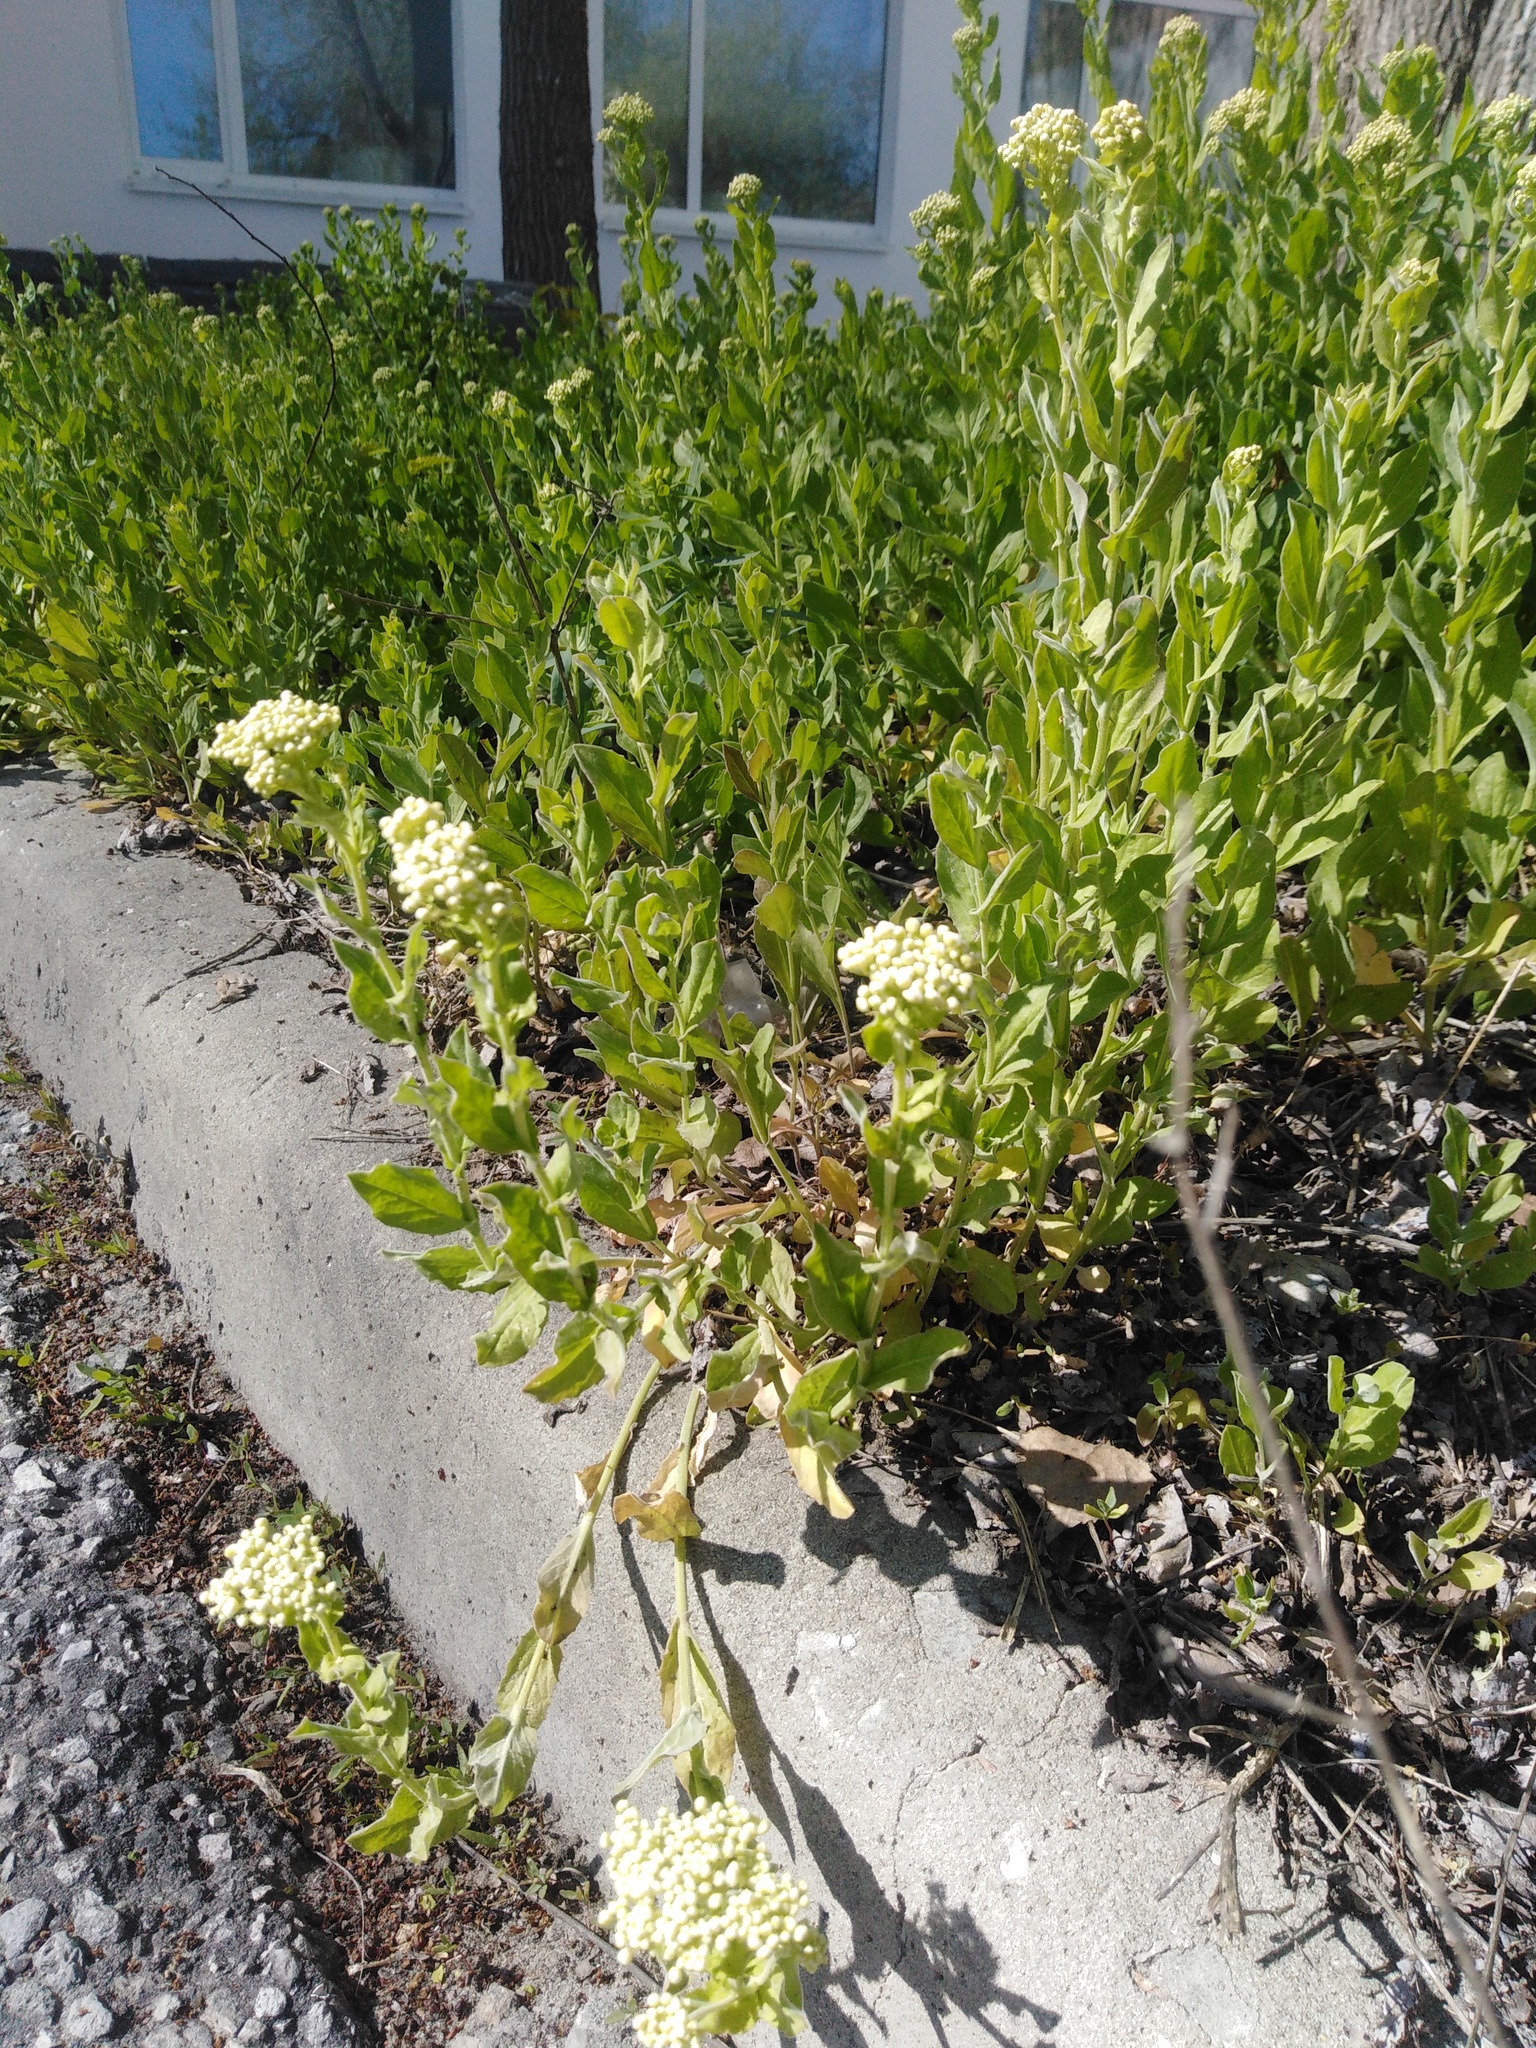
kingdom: Plantae
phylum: Tracheophyta
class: Magnoliopsida
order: Brassicales
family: Brassicaceae
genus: Lepidium
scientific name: Lepidium draba
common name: Hoary cress
